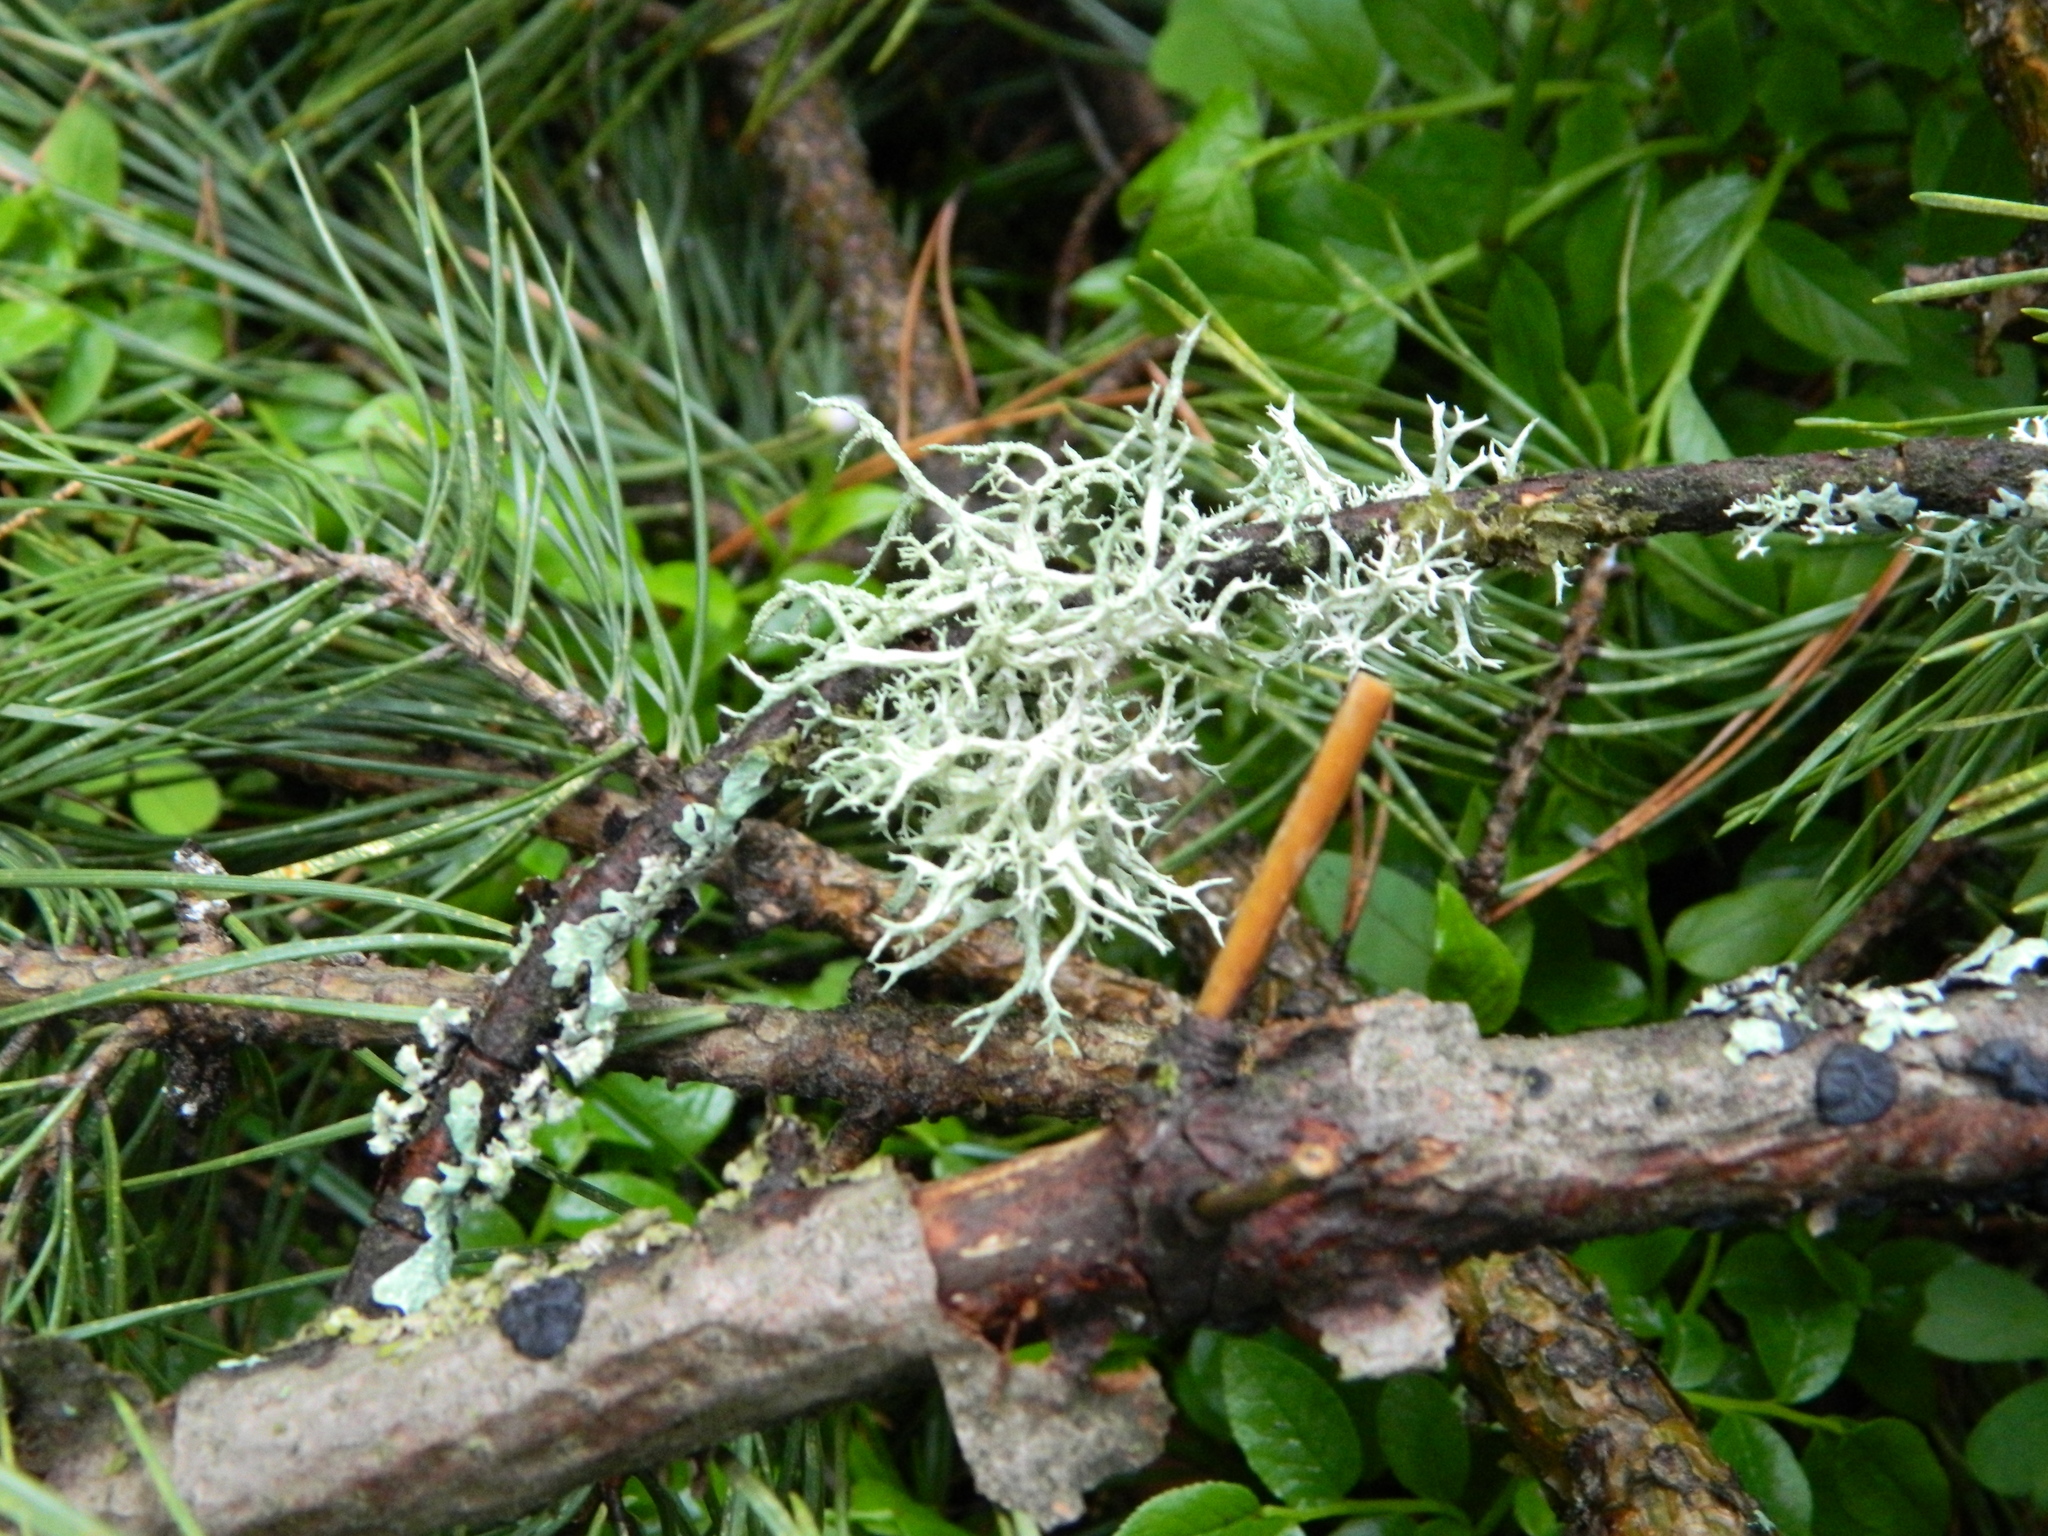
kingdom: Fungi
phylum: Ascomycota
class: Lecanoromycetes
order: Lecanorales
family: Parmeliaceae
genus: Evernia
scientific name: Evernia mesomorpha
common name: Boreal oak moss lichen
